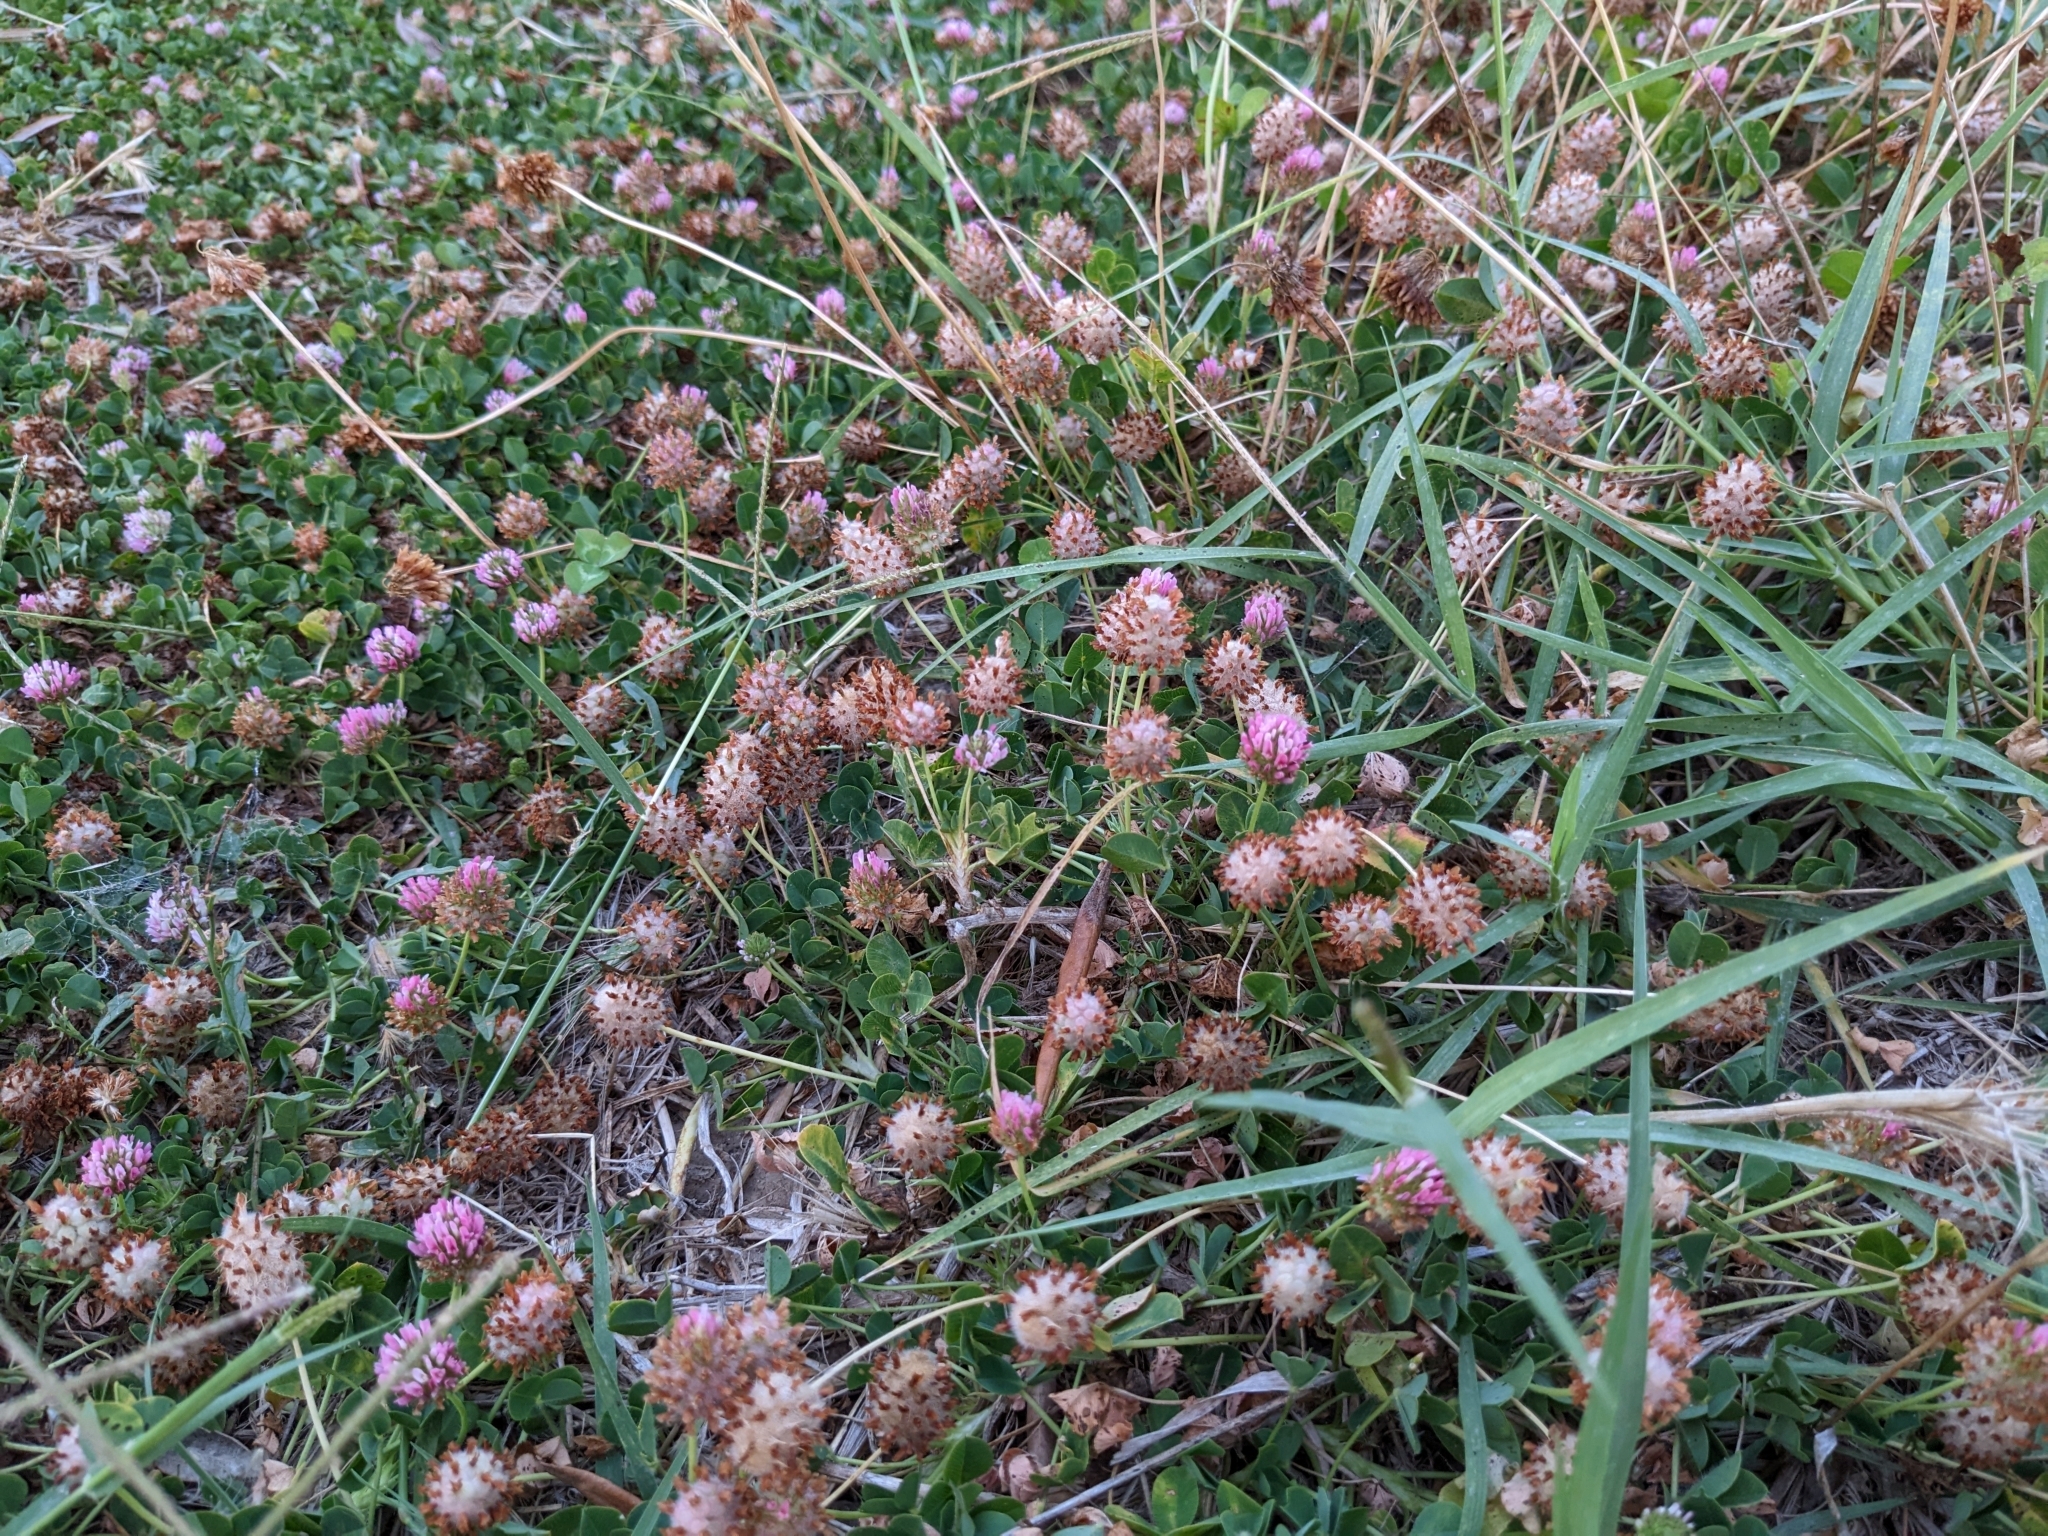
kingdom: Plantae
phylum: Tracheophyta
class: Magnoliopsida
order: Fabales
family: Fabaceae
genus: Trifolium
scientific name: Trifolium fragiferum
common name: Strawberry clover
